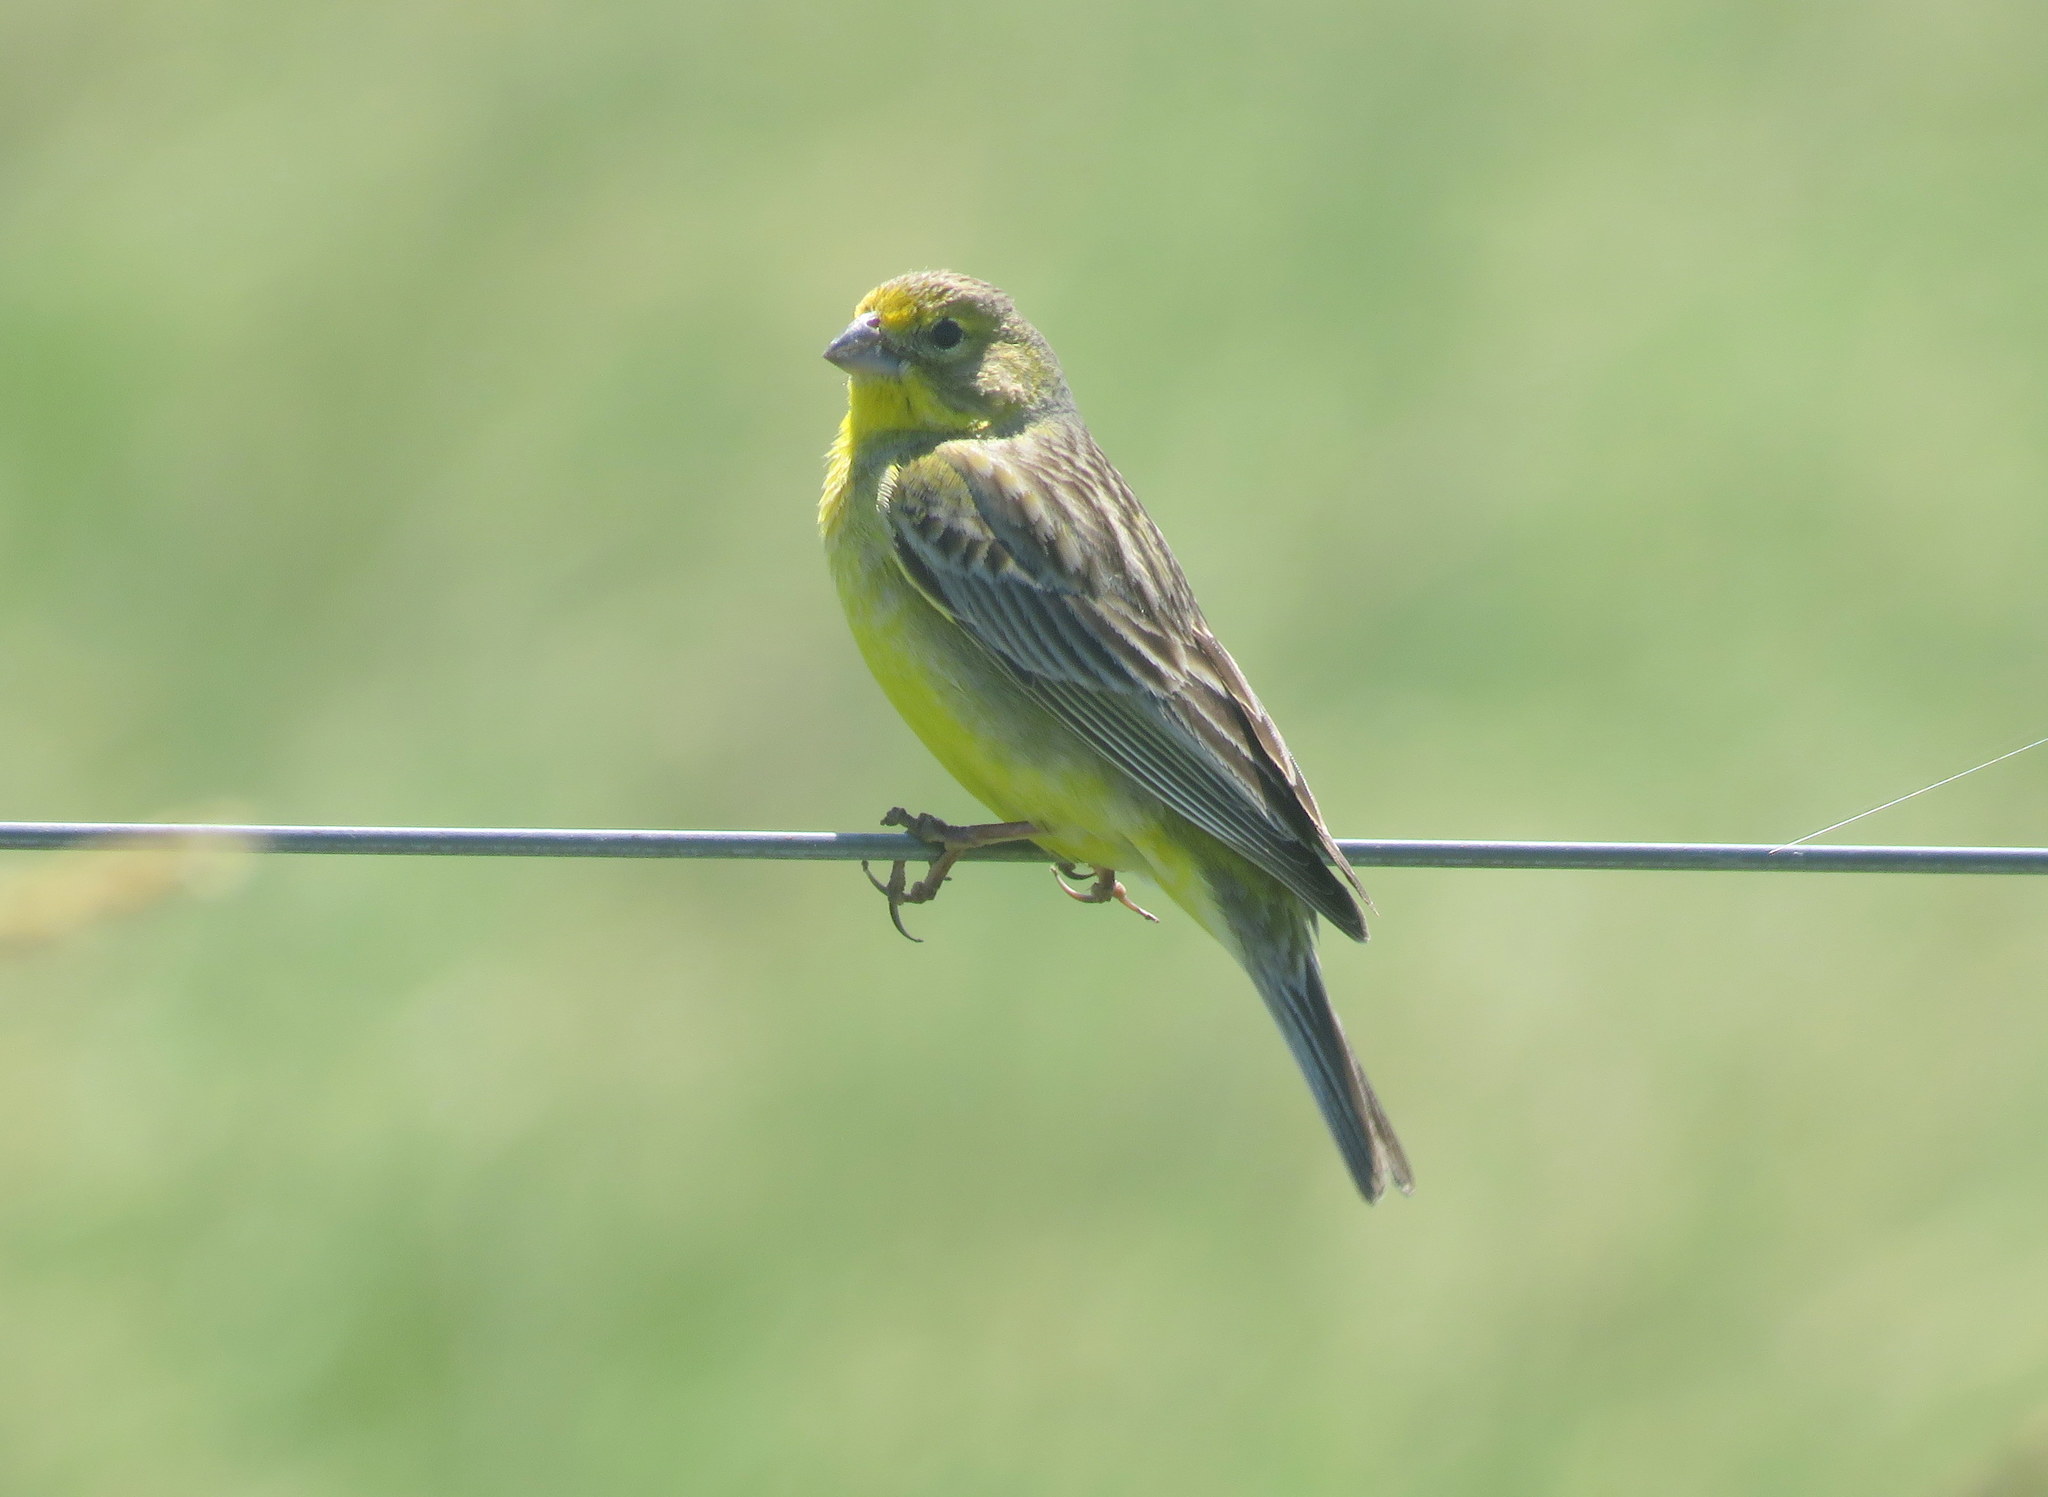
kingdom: Animalia
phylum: Chordata
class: Aves
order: Passeriformes
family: Thraupidae
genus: Sicalis
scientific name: Sicalis luteola
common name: Grassland yellow-finch
